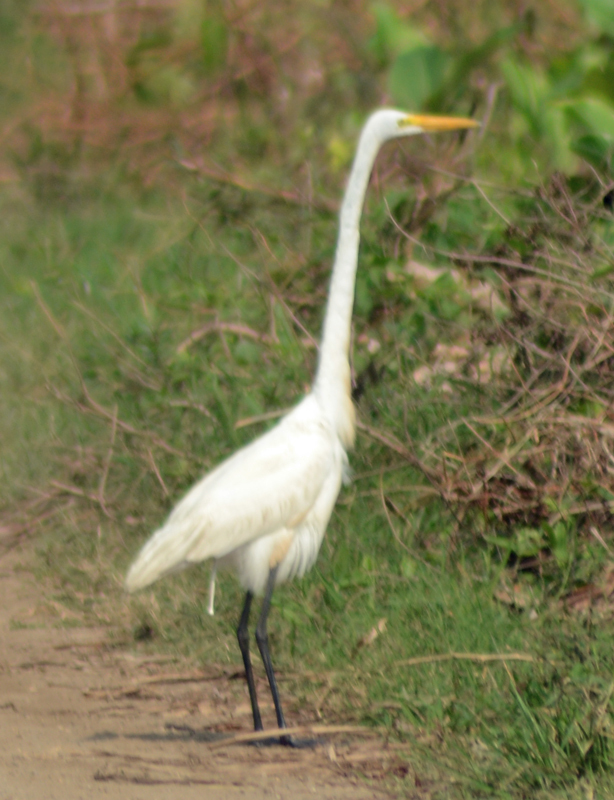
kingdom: Animalia
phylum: Chordata
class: Aves
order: Pelecaniformes
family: Ardeidae
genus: Ardea
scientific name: Ardea alba
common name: Great egret
